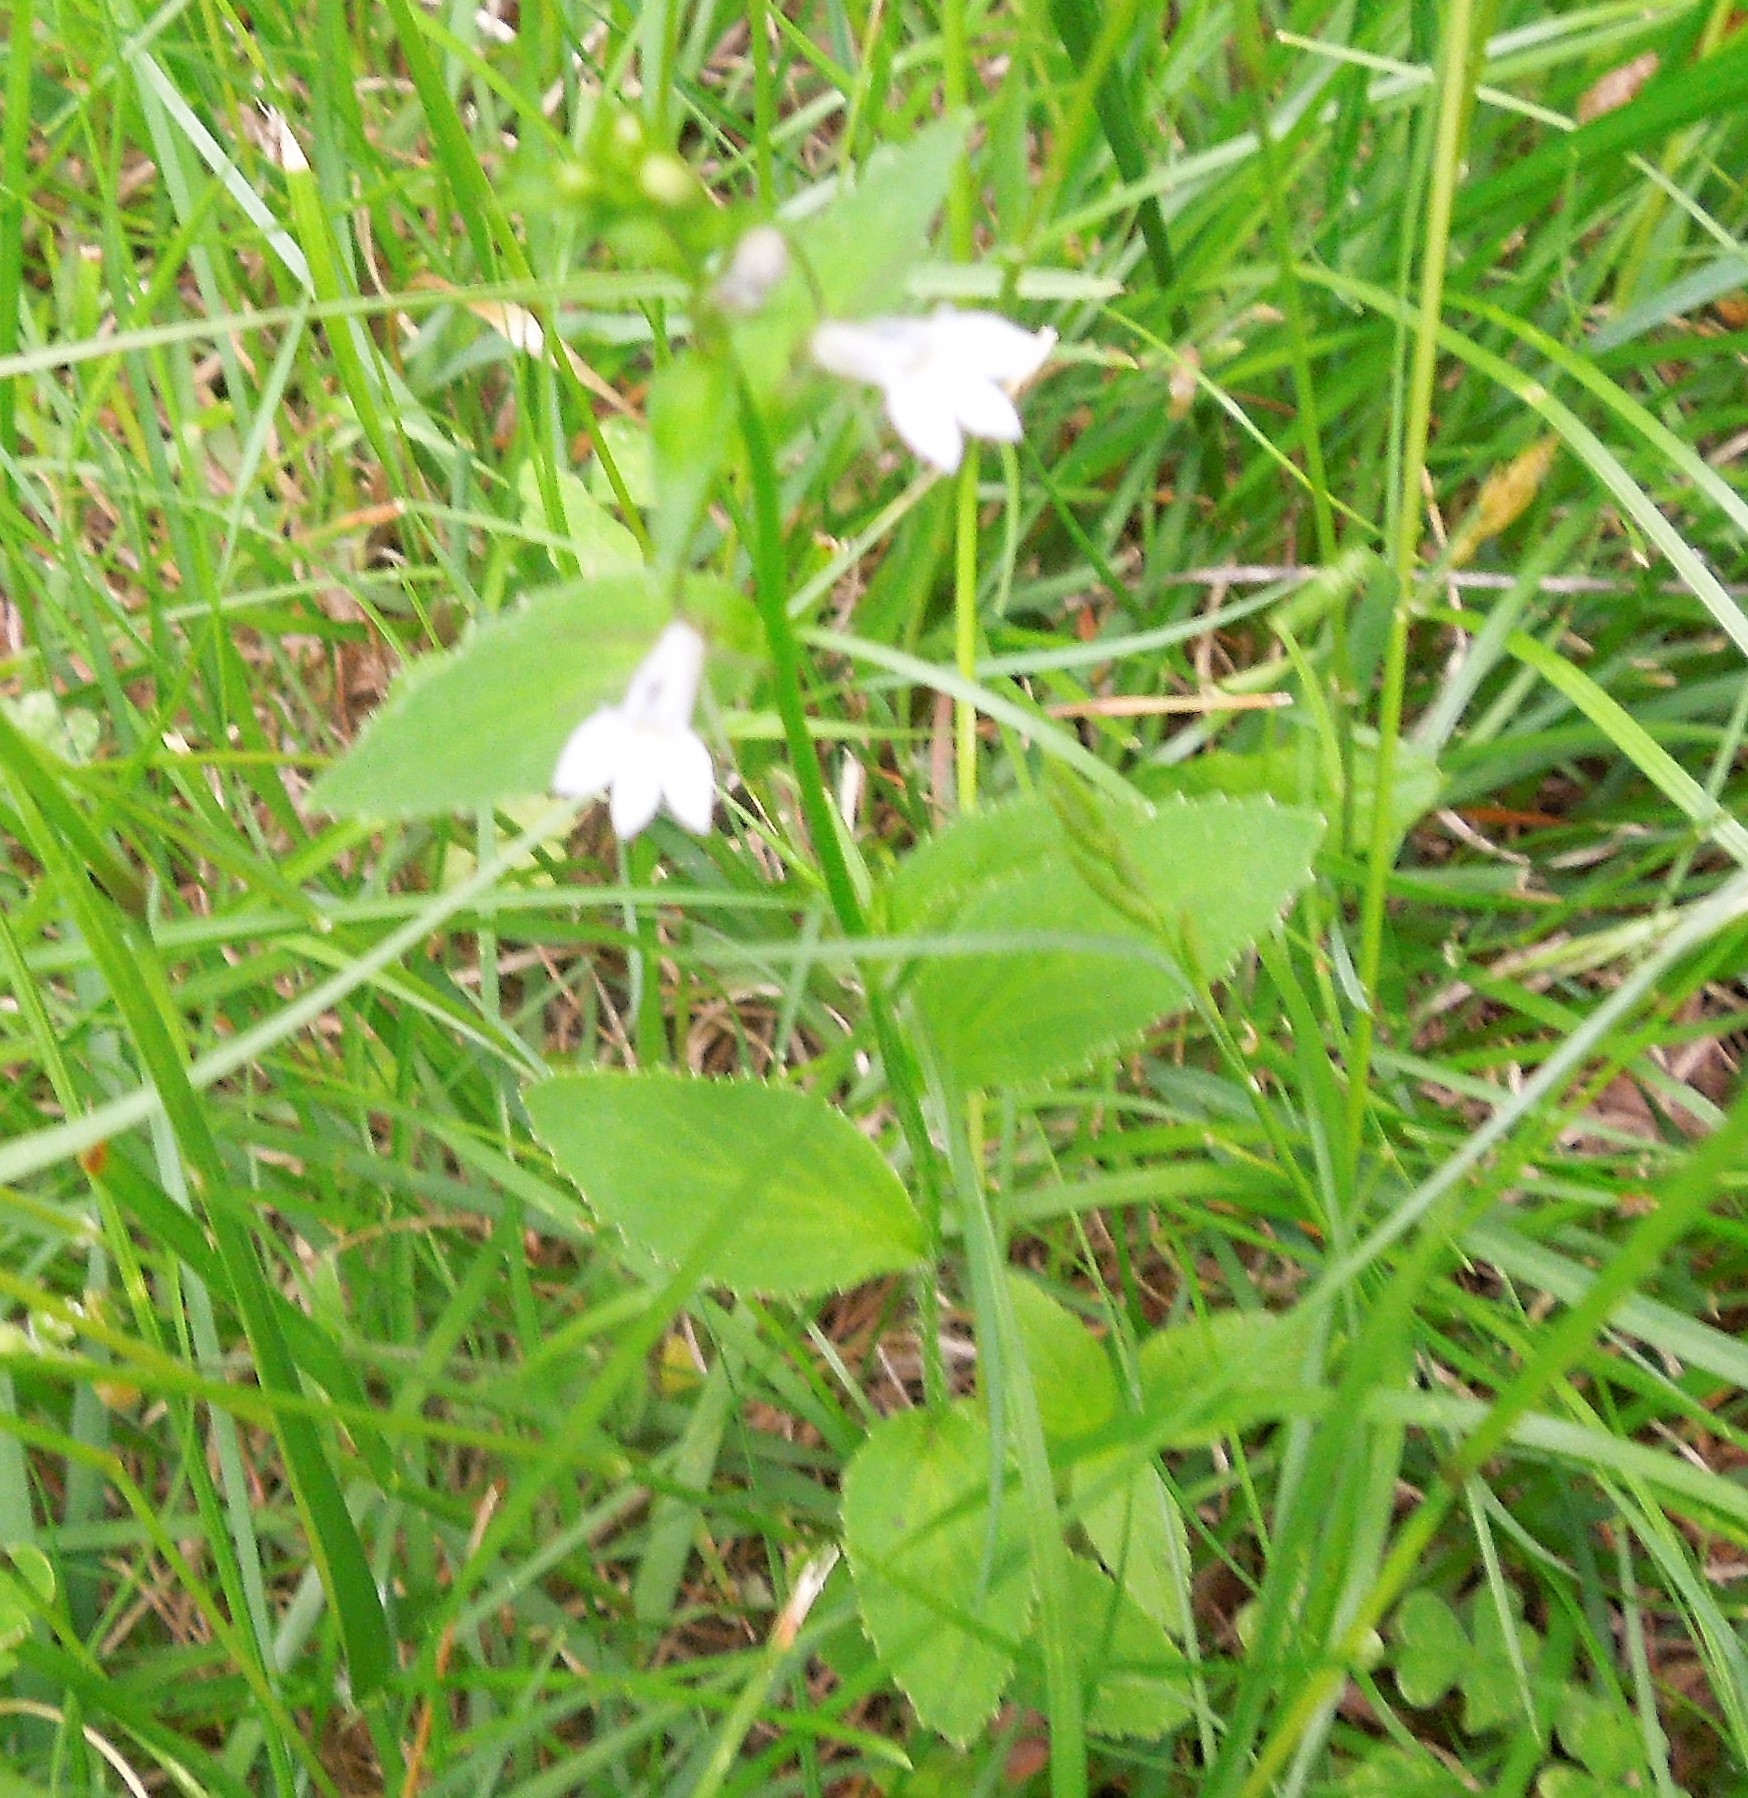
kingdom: Plantae
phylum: Tracheophyta
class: Magnoliopsida
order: Asterales
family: Campanulaceae
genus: Lobelia
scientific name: Lobelia inflata
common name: Indian tobacco
